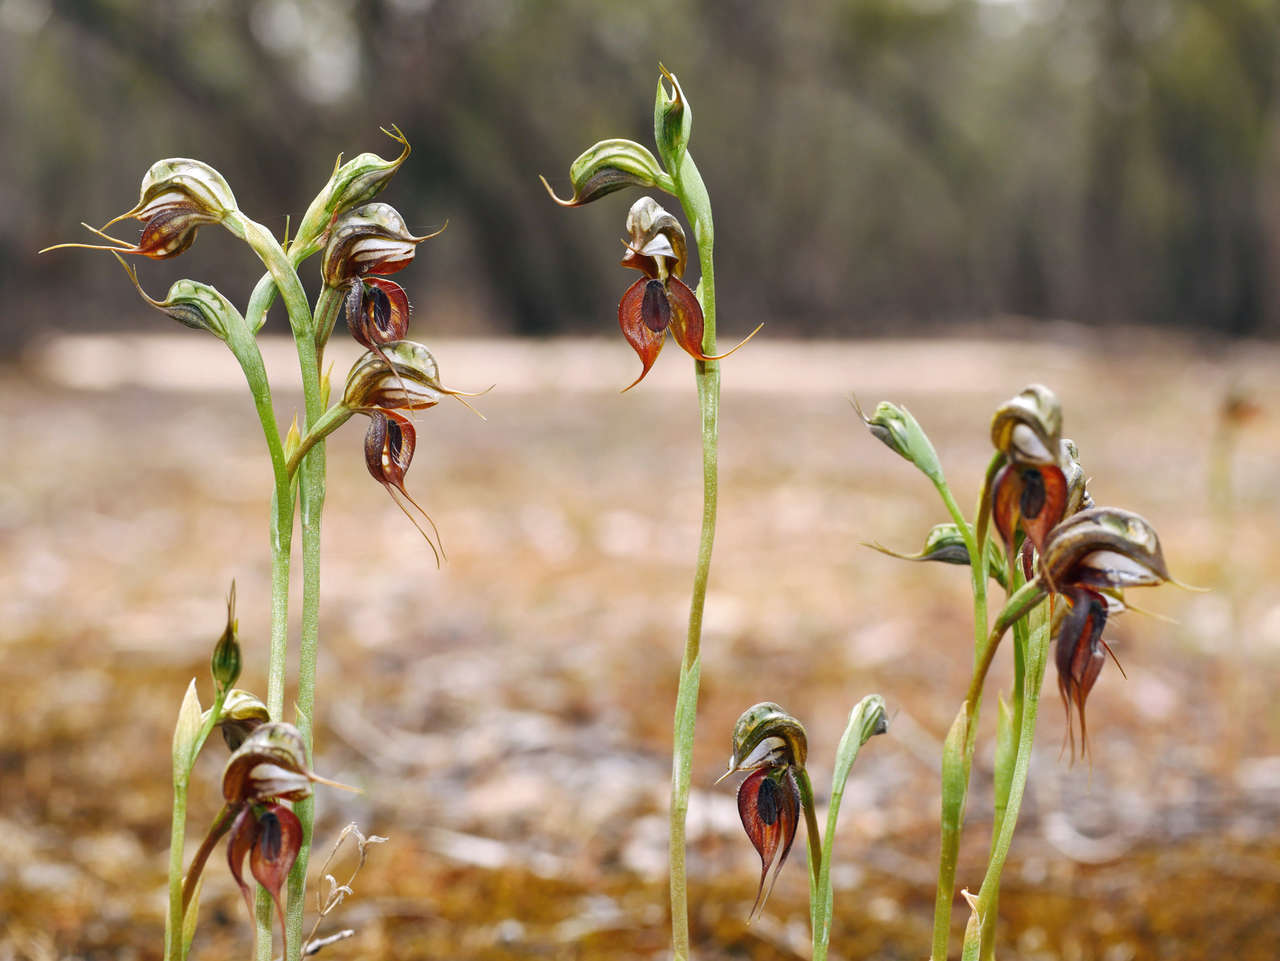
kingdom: Plantae
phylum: Tracheophyta
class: Liliopsida
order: Asparagales
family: Orchidaceae
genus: Pterostylis
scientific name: Pterostylis cheraphila
